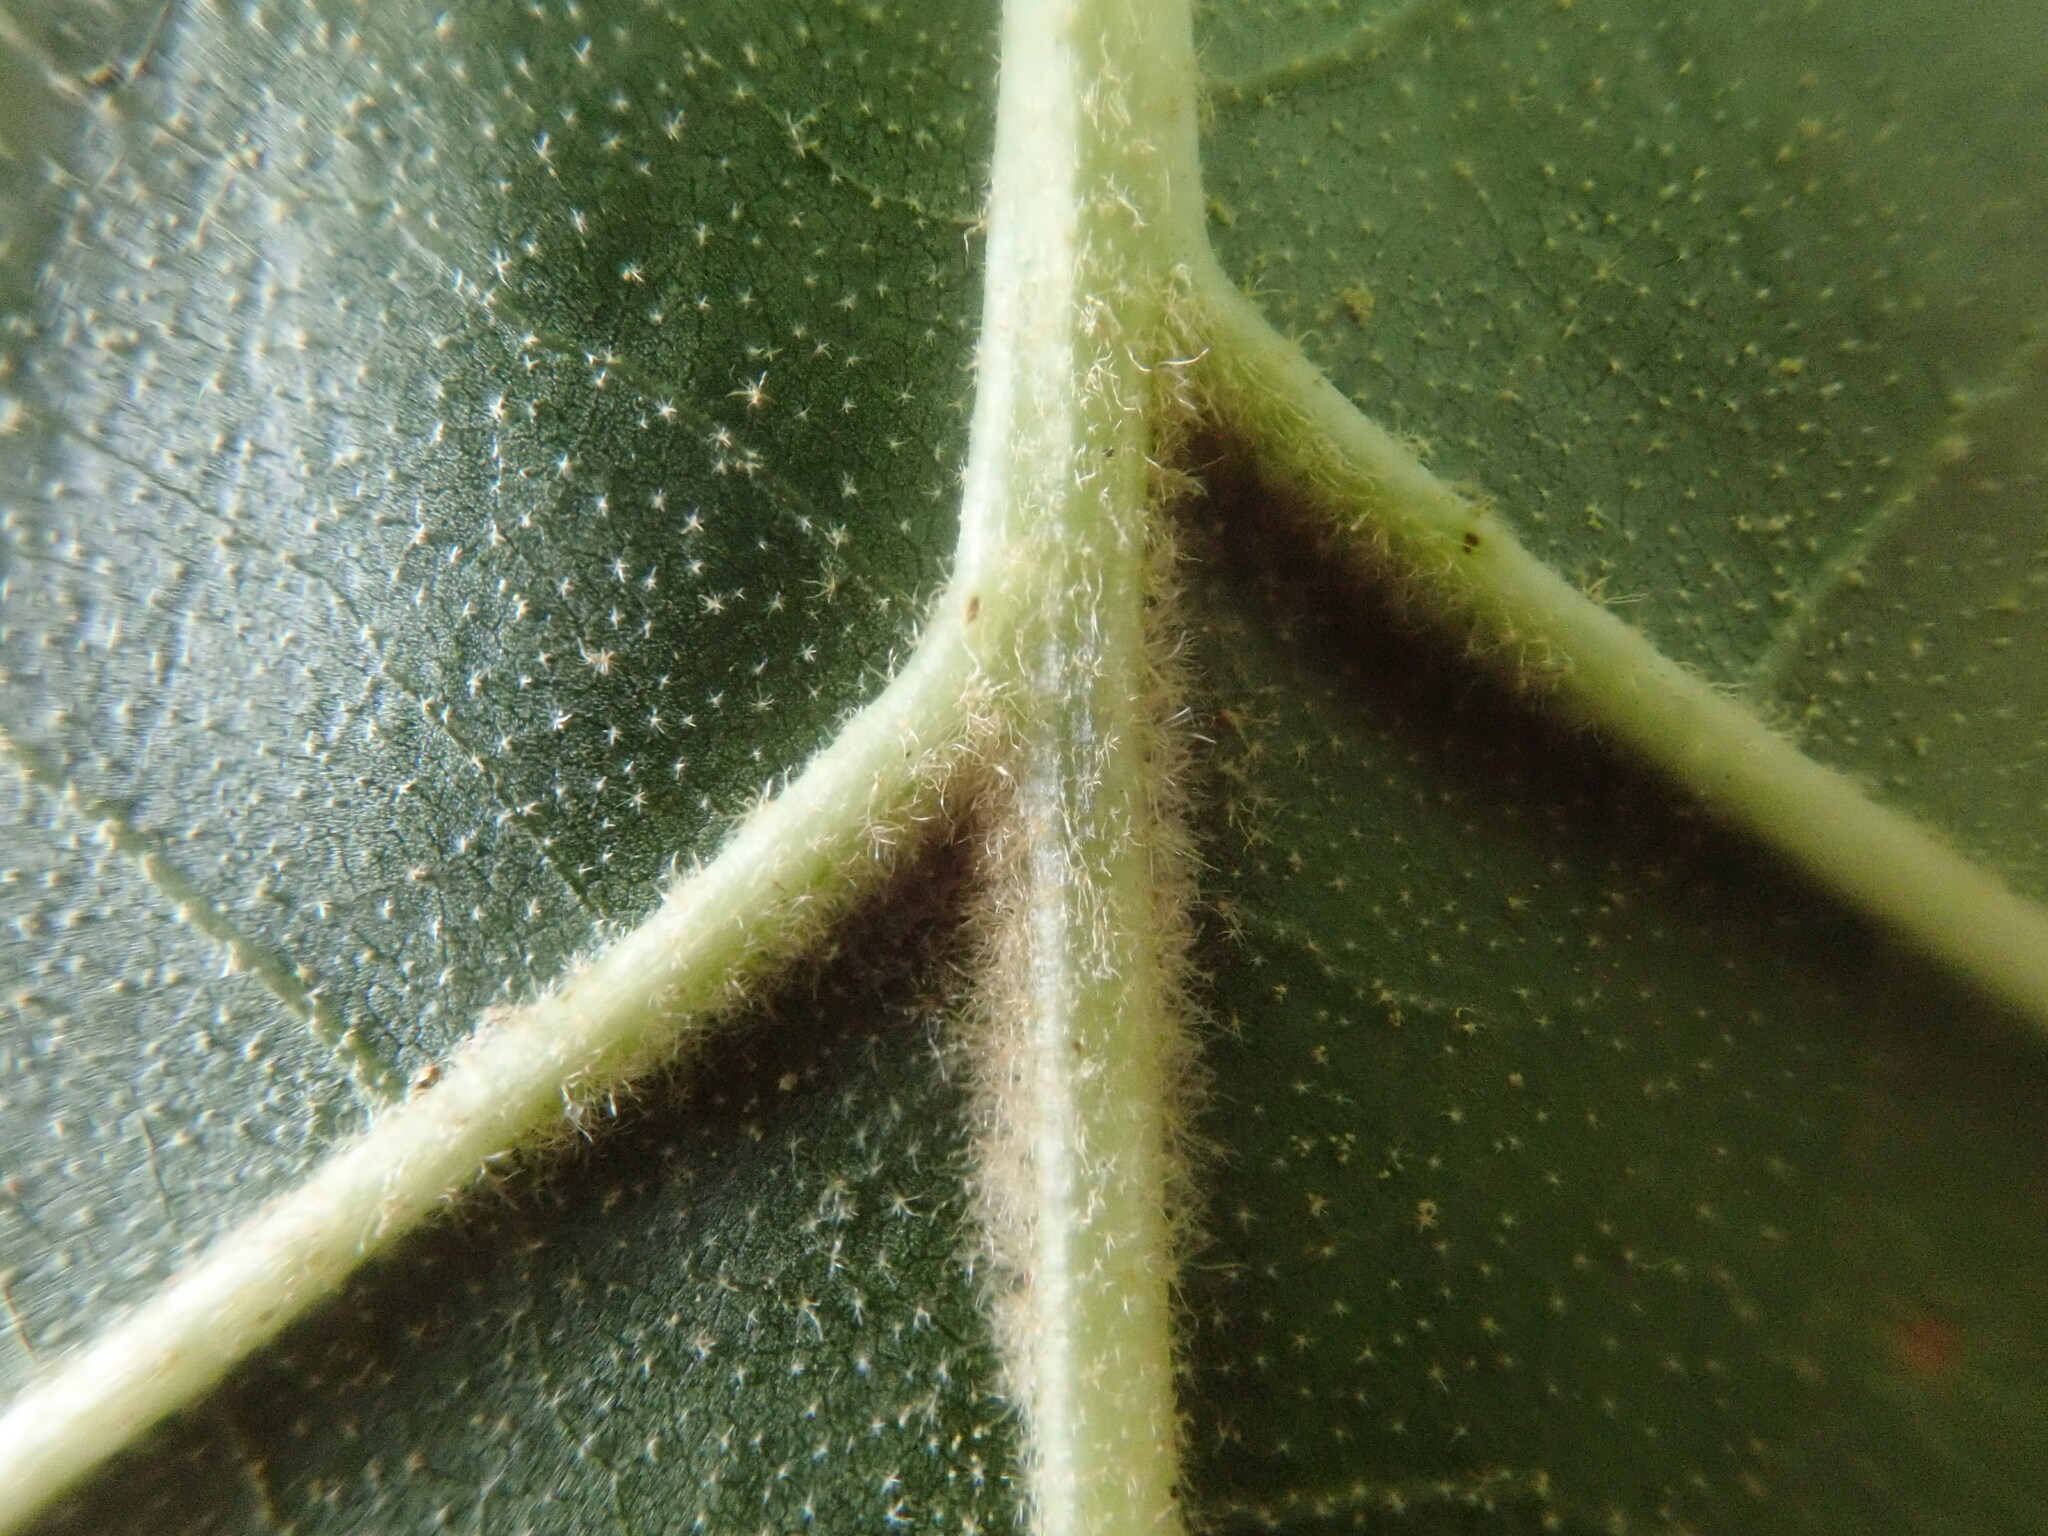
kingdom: Plantae
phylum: Tracheophyta
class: Magnoliopsida
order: Fagales
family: Fagaceae
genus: Quercus
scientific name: Quercus velutina
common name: Black oak
